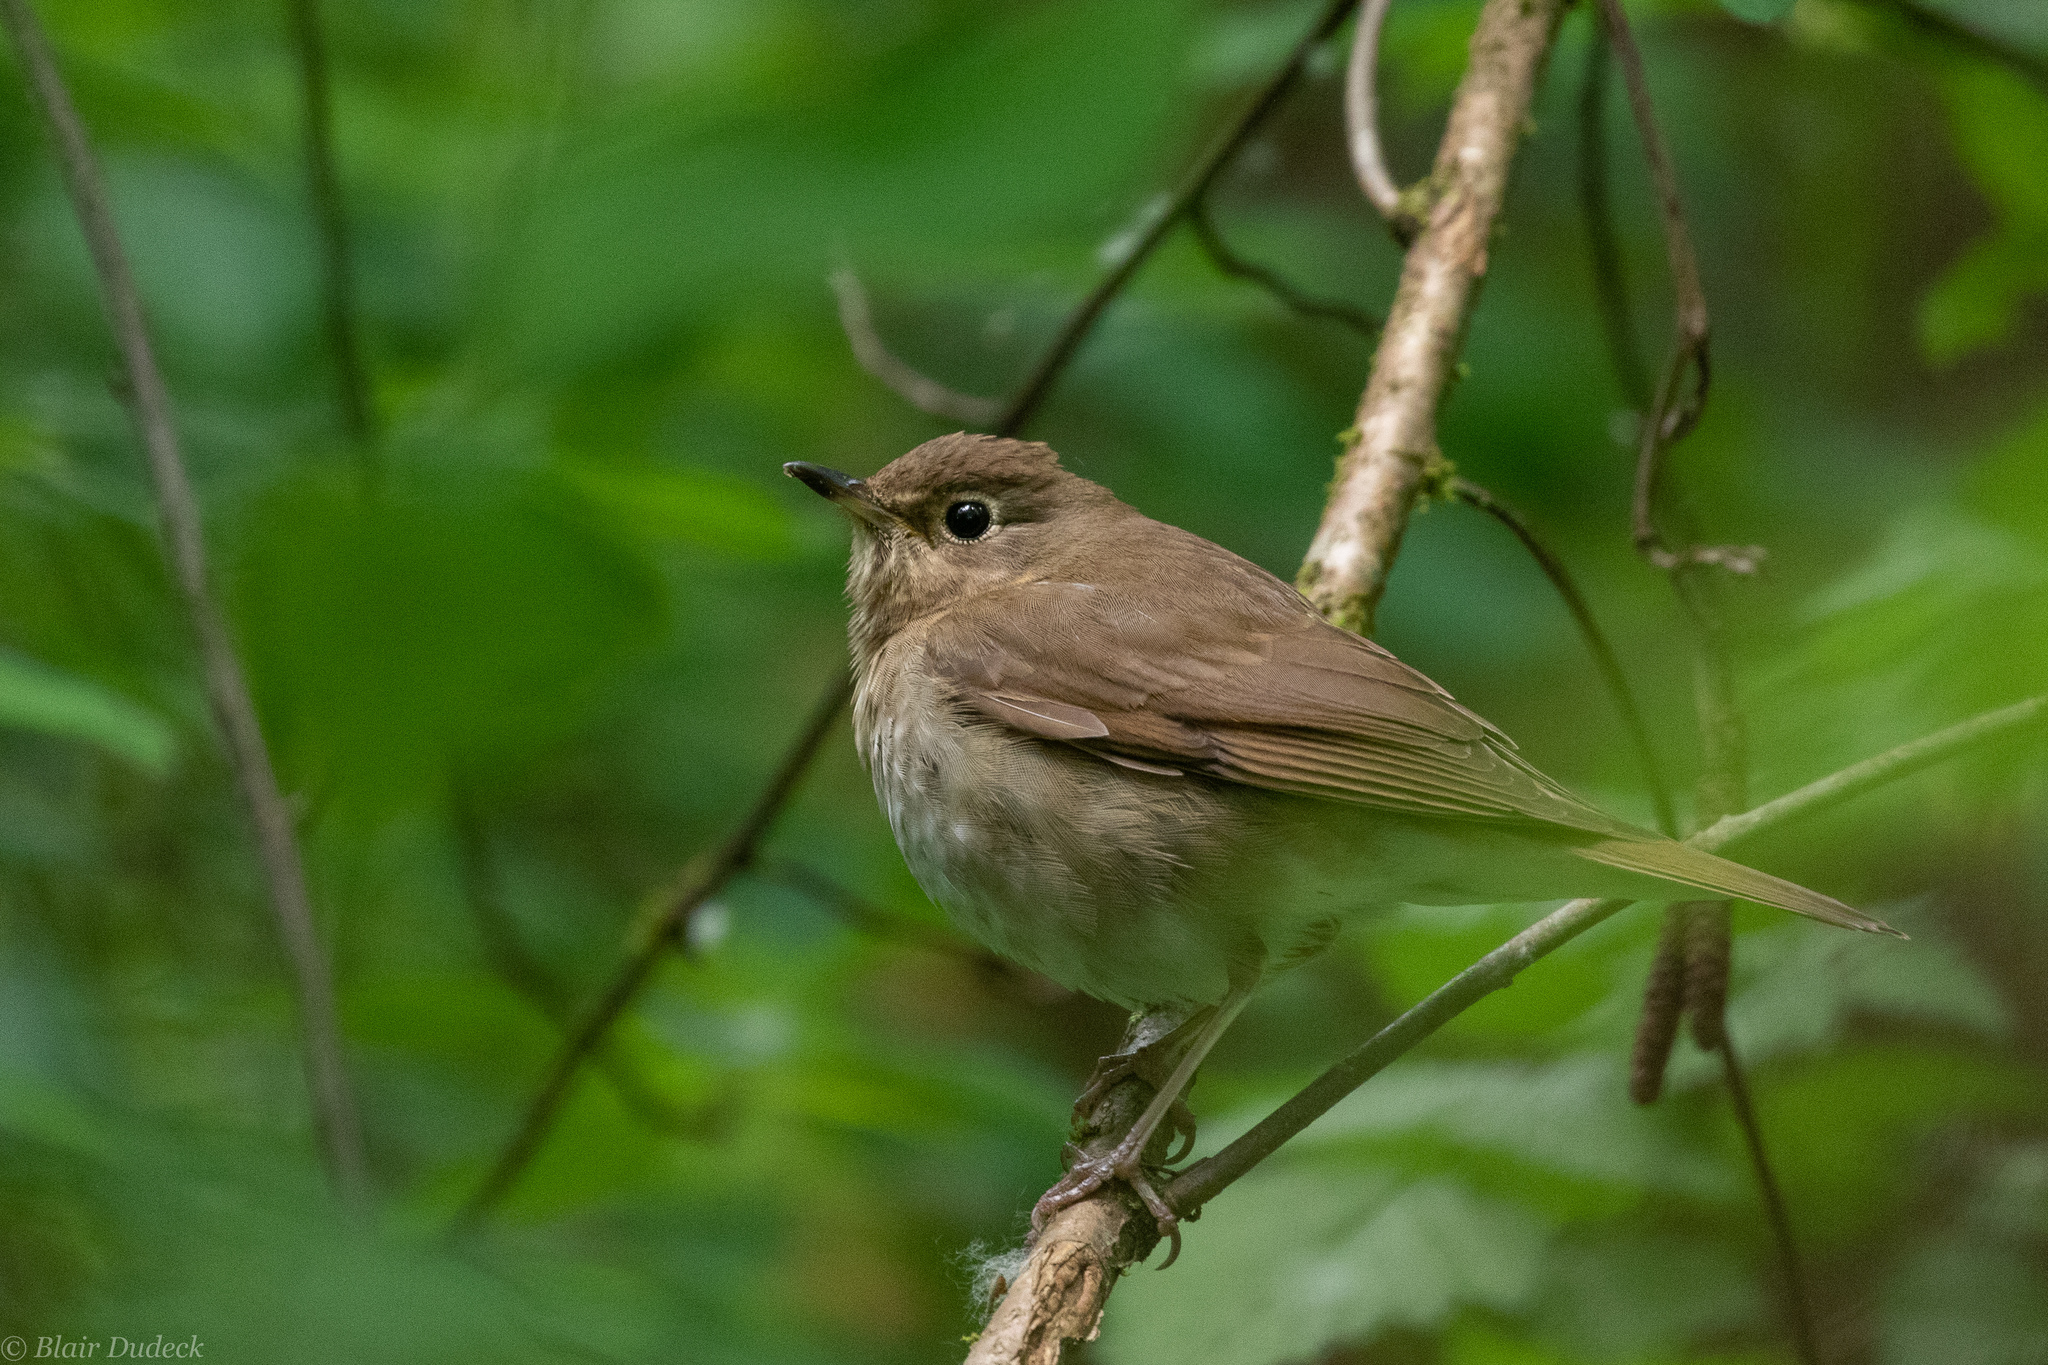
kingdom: Animalia
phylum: Chordata
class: Aves
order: Passeriformes
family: Turdidae
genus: Catharus
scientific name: Catharus ustulatus
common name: Swainson's thrush
